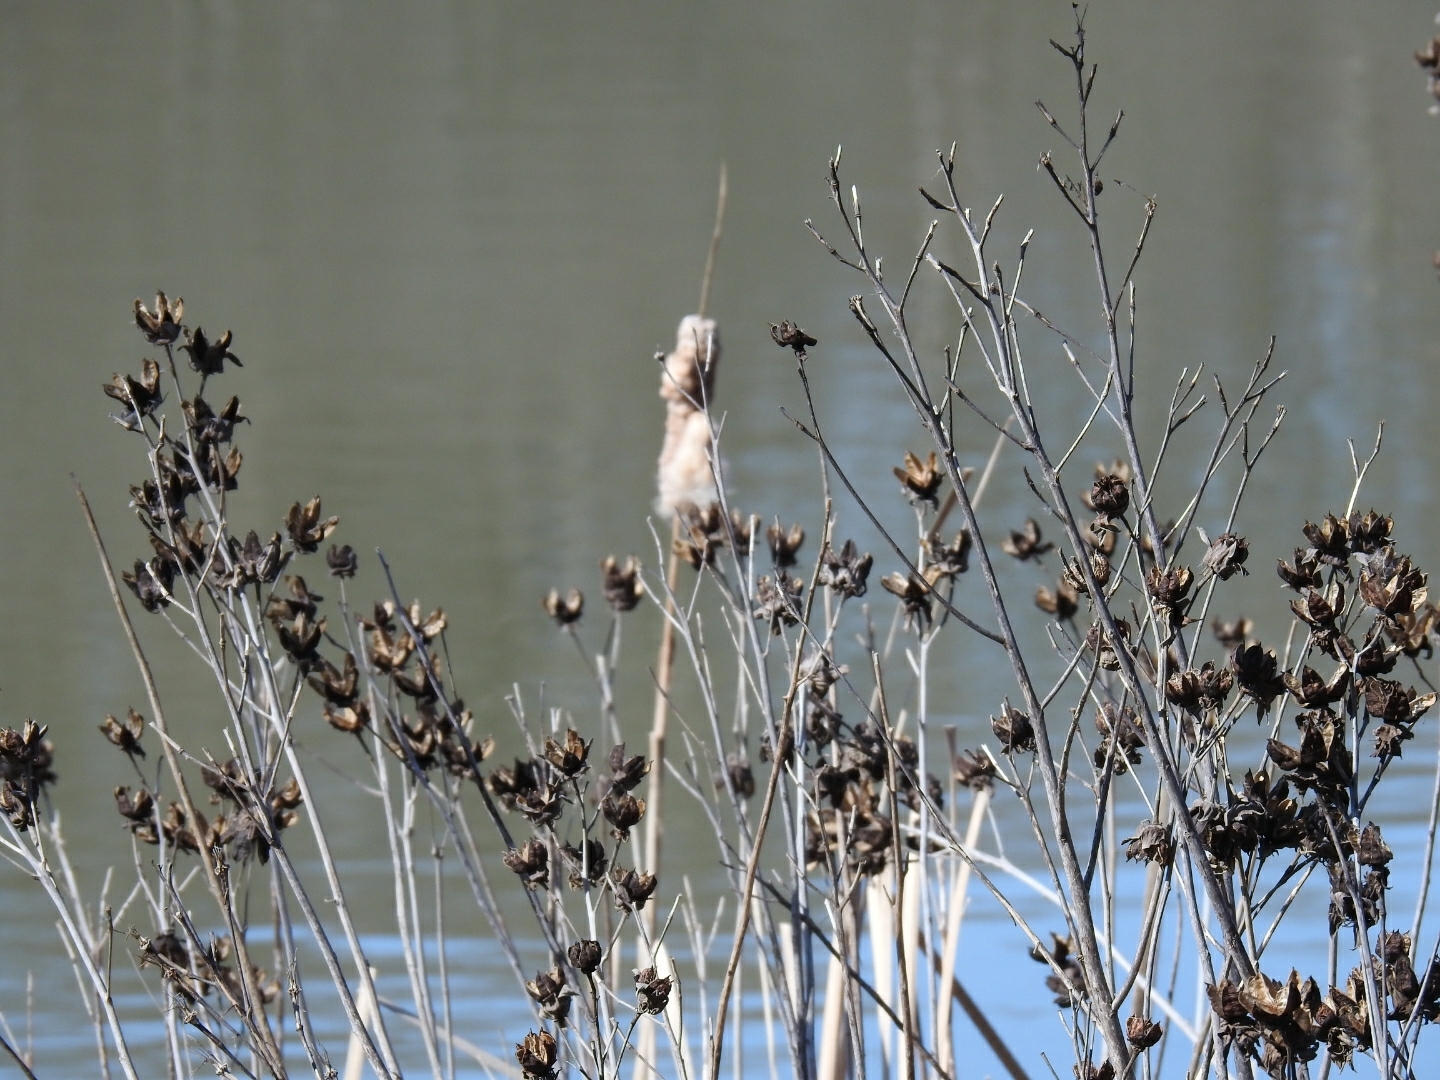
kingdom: Plantae
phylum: Tracheophyta
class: Liliopsida
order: Poales
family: Typhaceae
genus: Typha
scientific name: Typha
